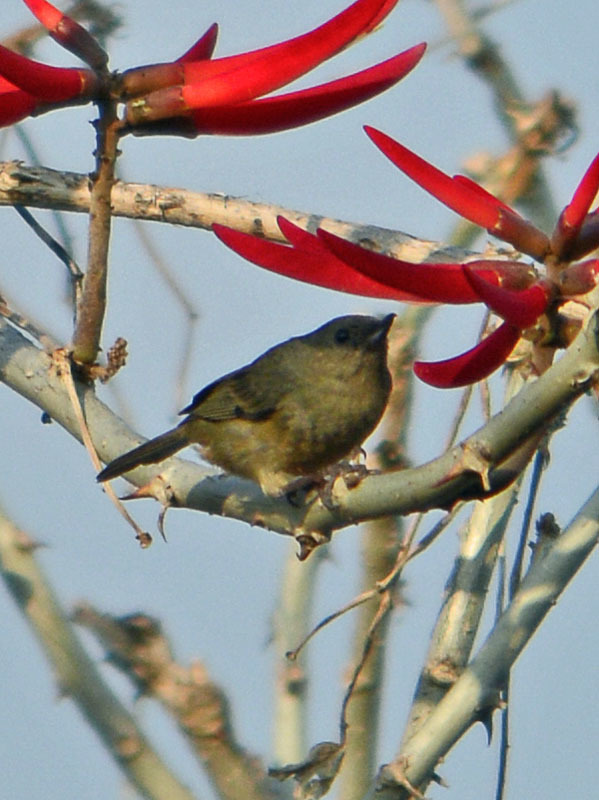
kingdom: Animalia
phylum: Chordata
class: Aves
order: Passeriformes
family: Thraupidae
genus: Diglossa
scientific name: Diglossa baritula
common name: Cinnamon-bellied flowerpiercer
